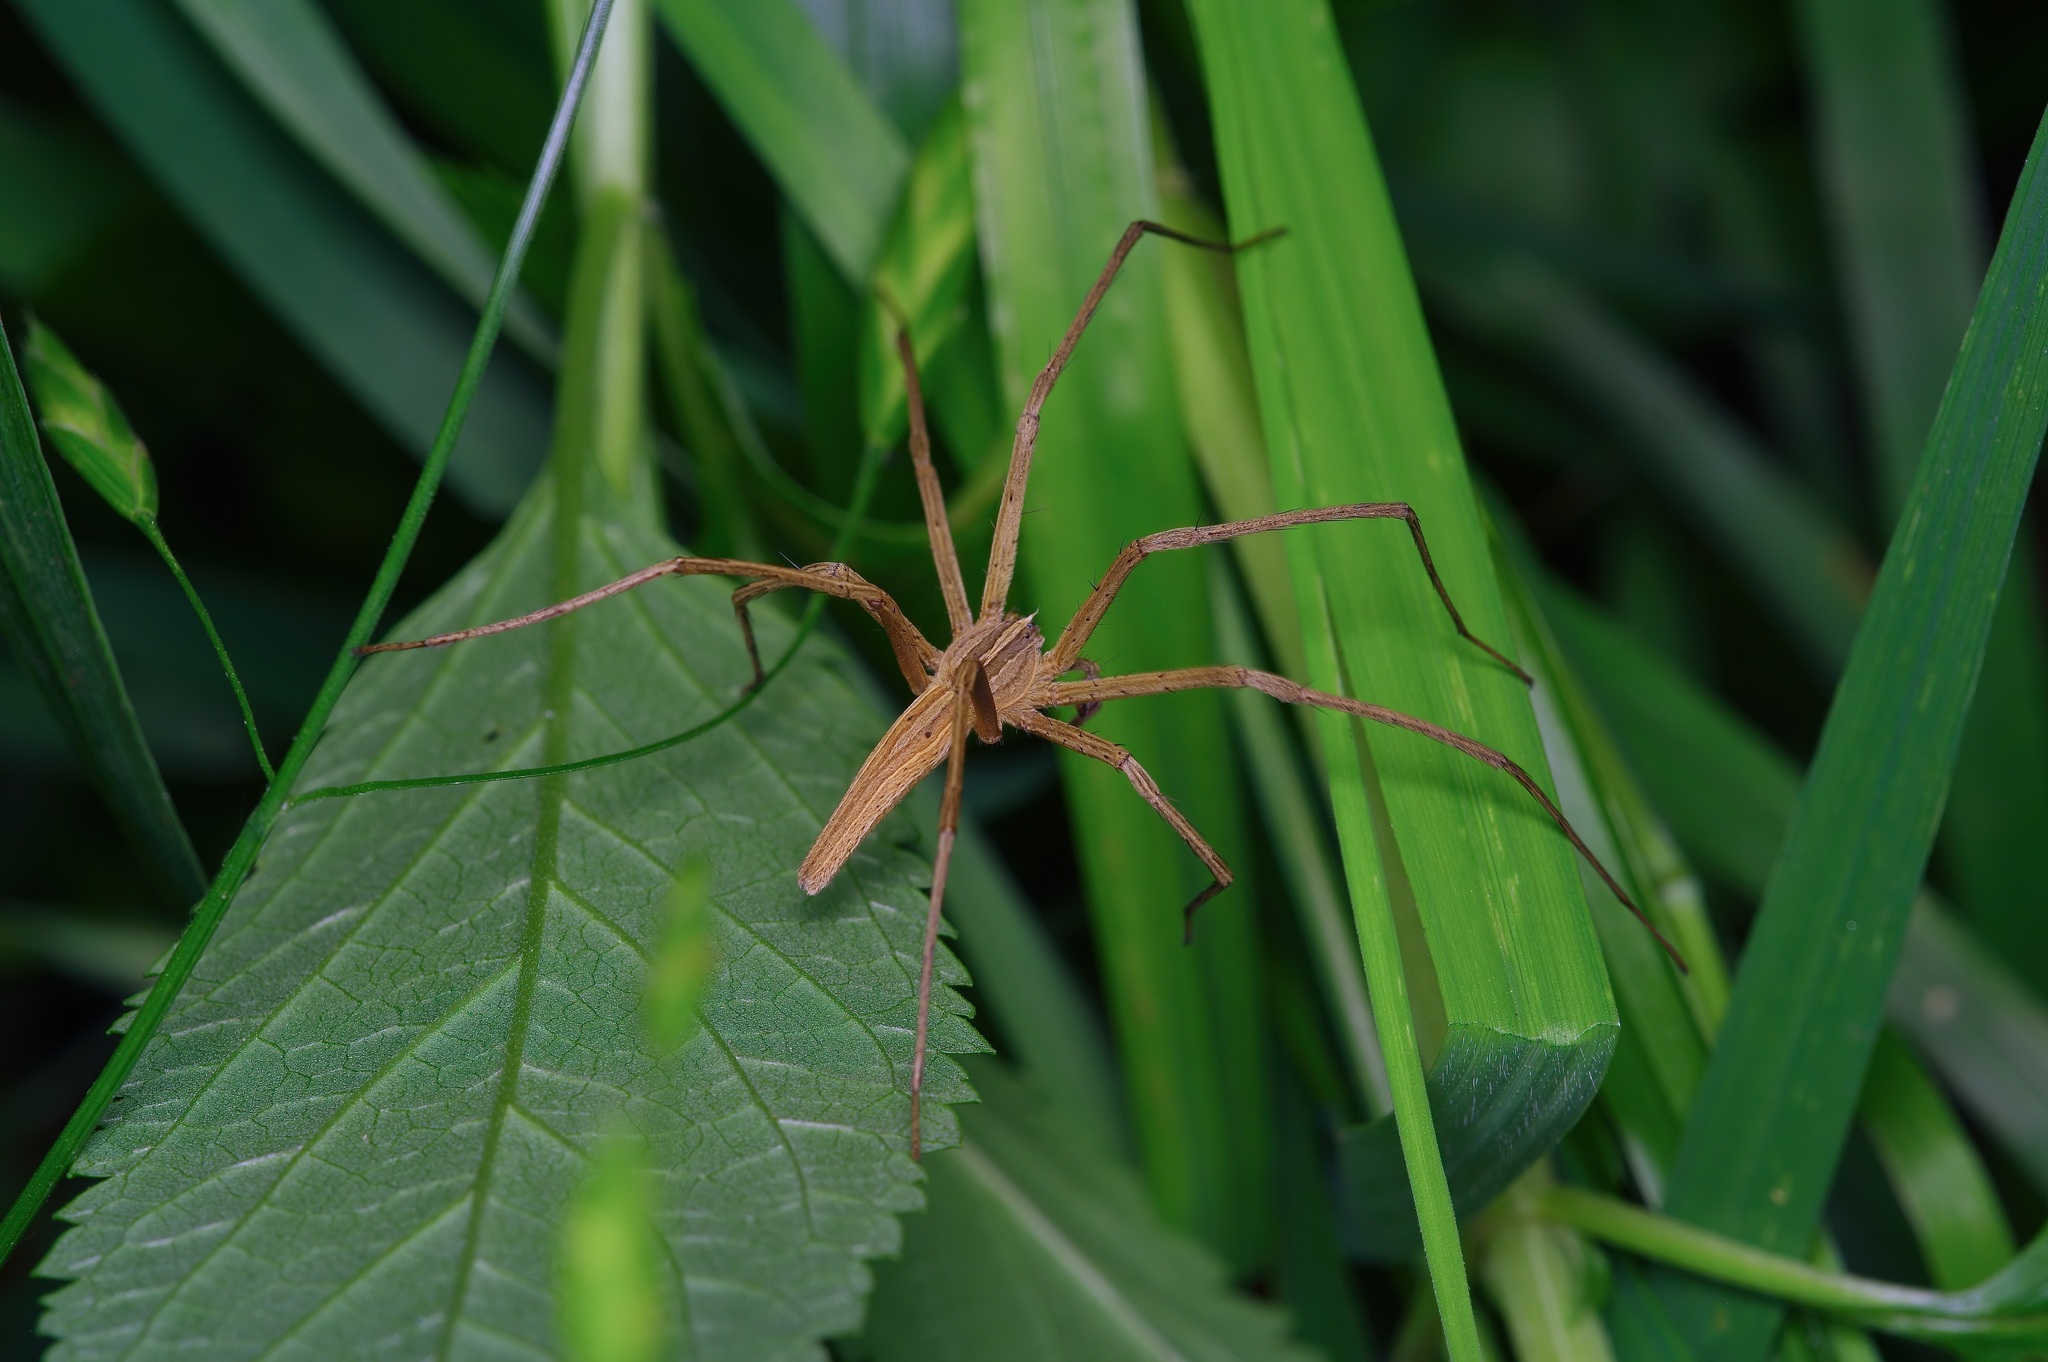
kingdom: Animalia
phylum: Arthropoda
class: Arachnida
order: Araneae
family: Pisauridae
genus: Pisaurina
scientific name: Pisaurina dubia
